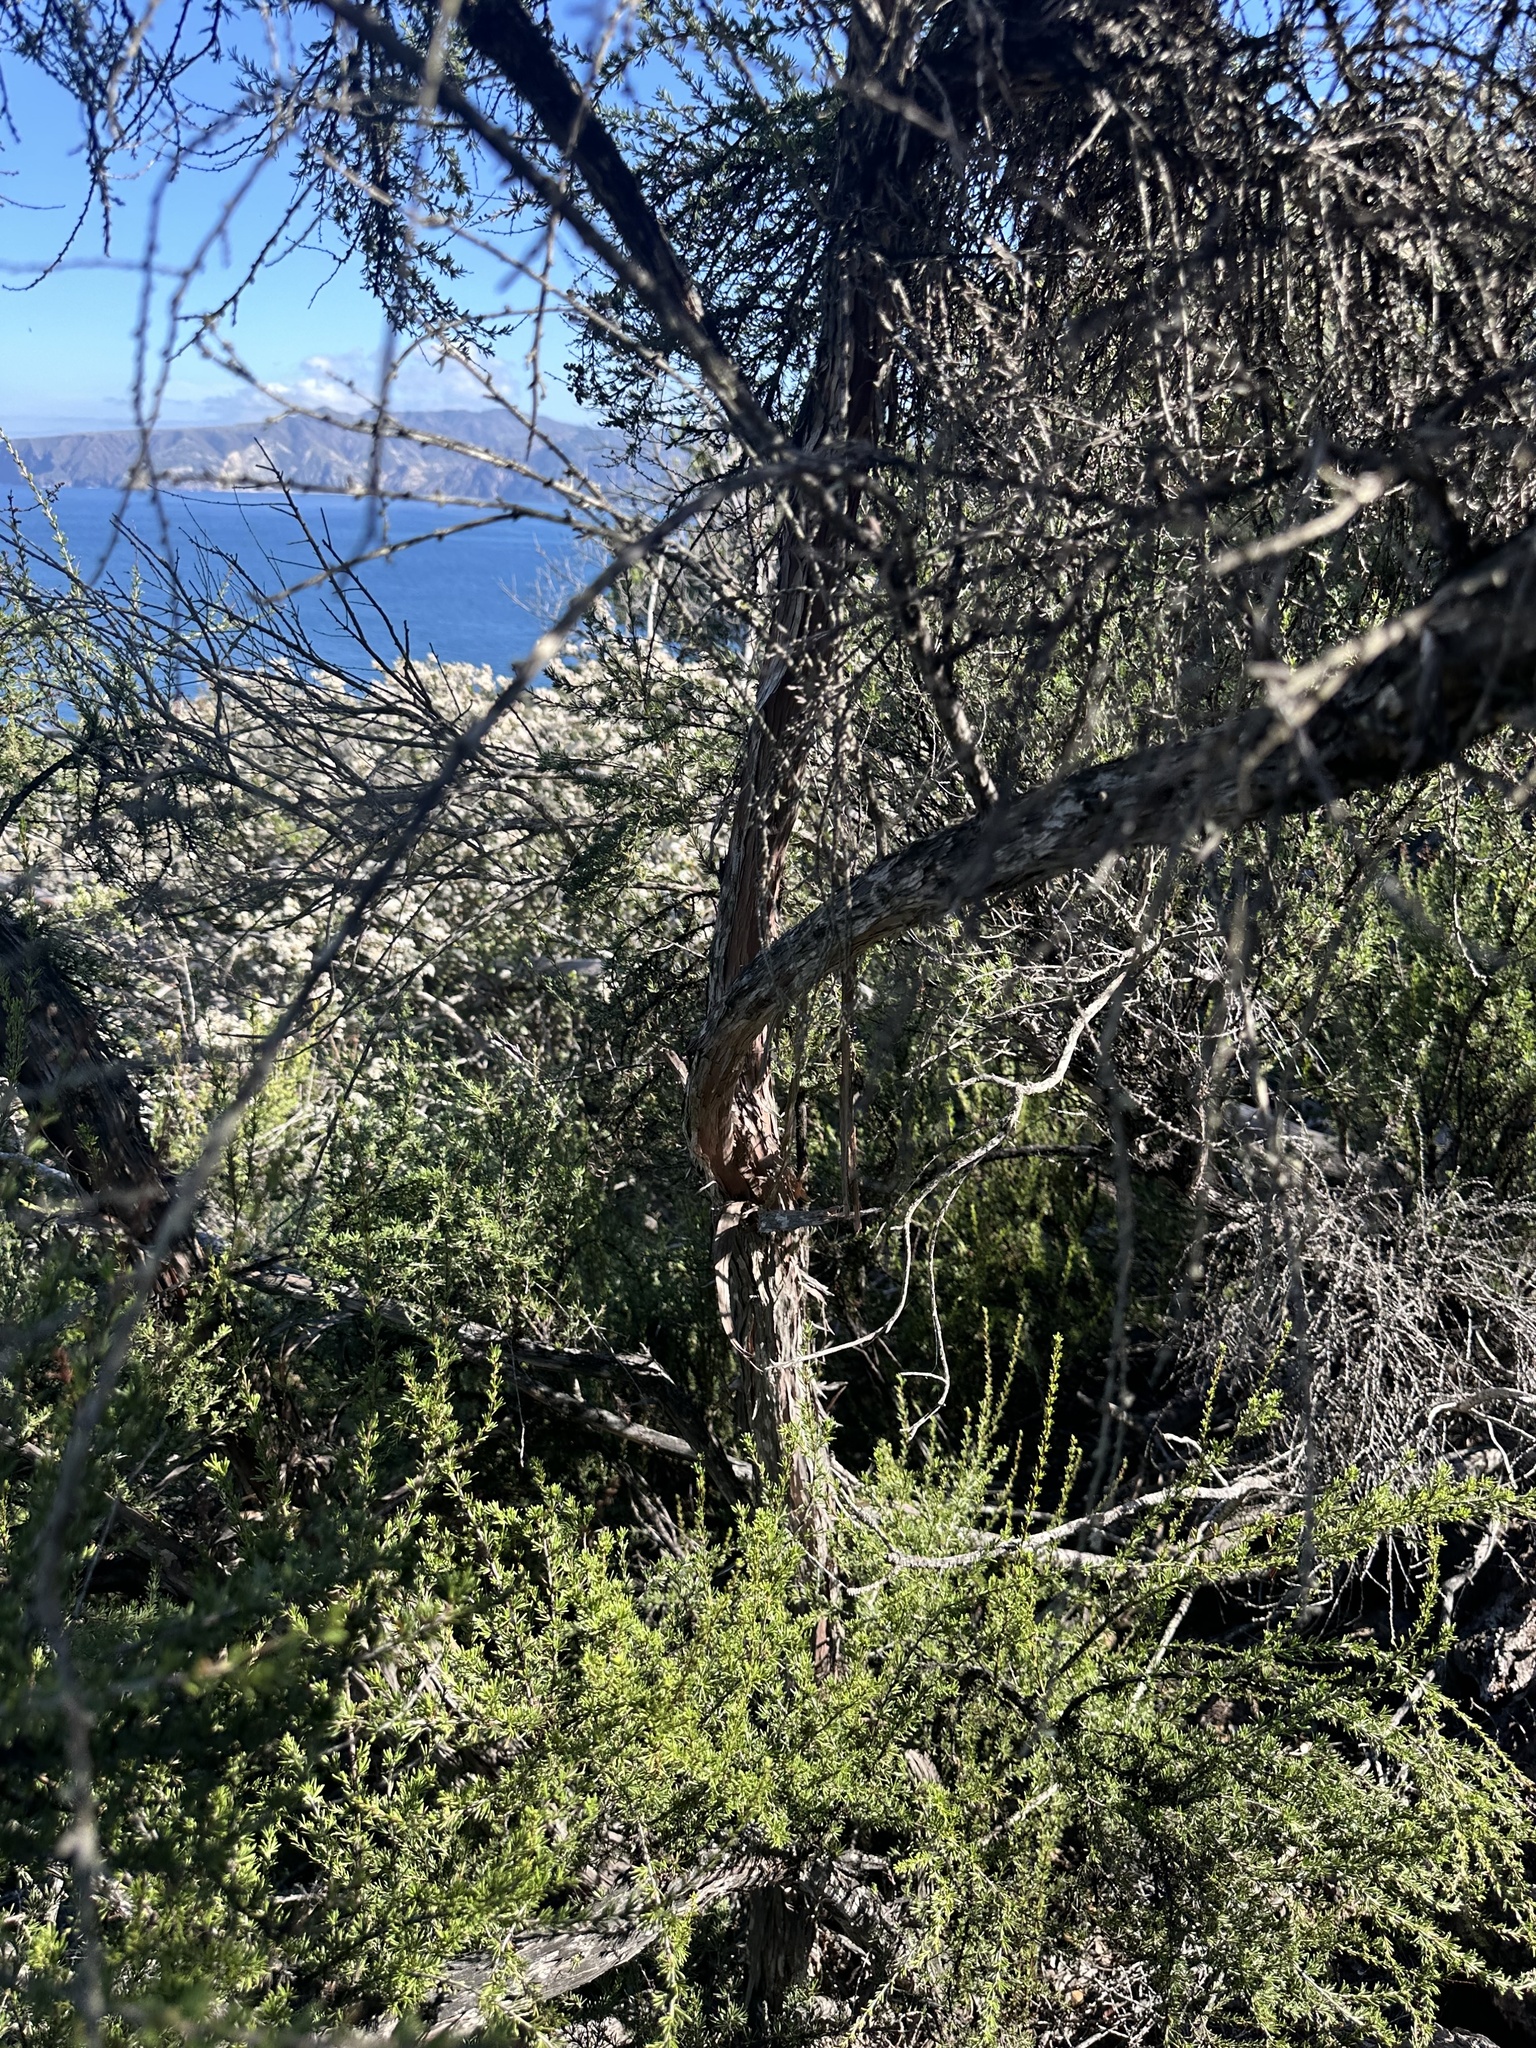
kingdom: Plantae
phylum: Tracheophyta
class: Magnoliopsida
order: Rosales
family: Rosaceae
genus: Adenostoma
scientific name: Adenostoma fasciculatum
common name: Chamise
